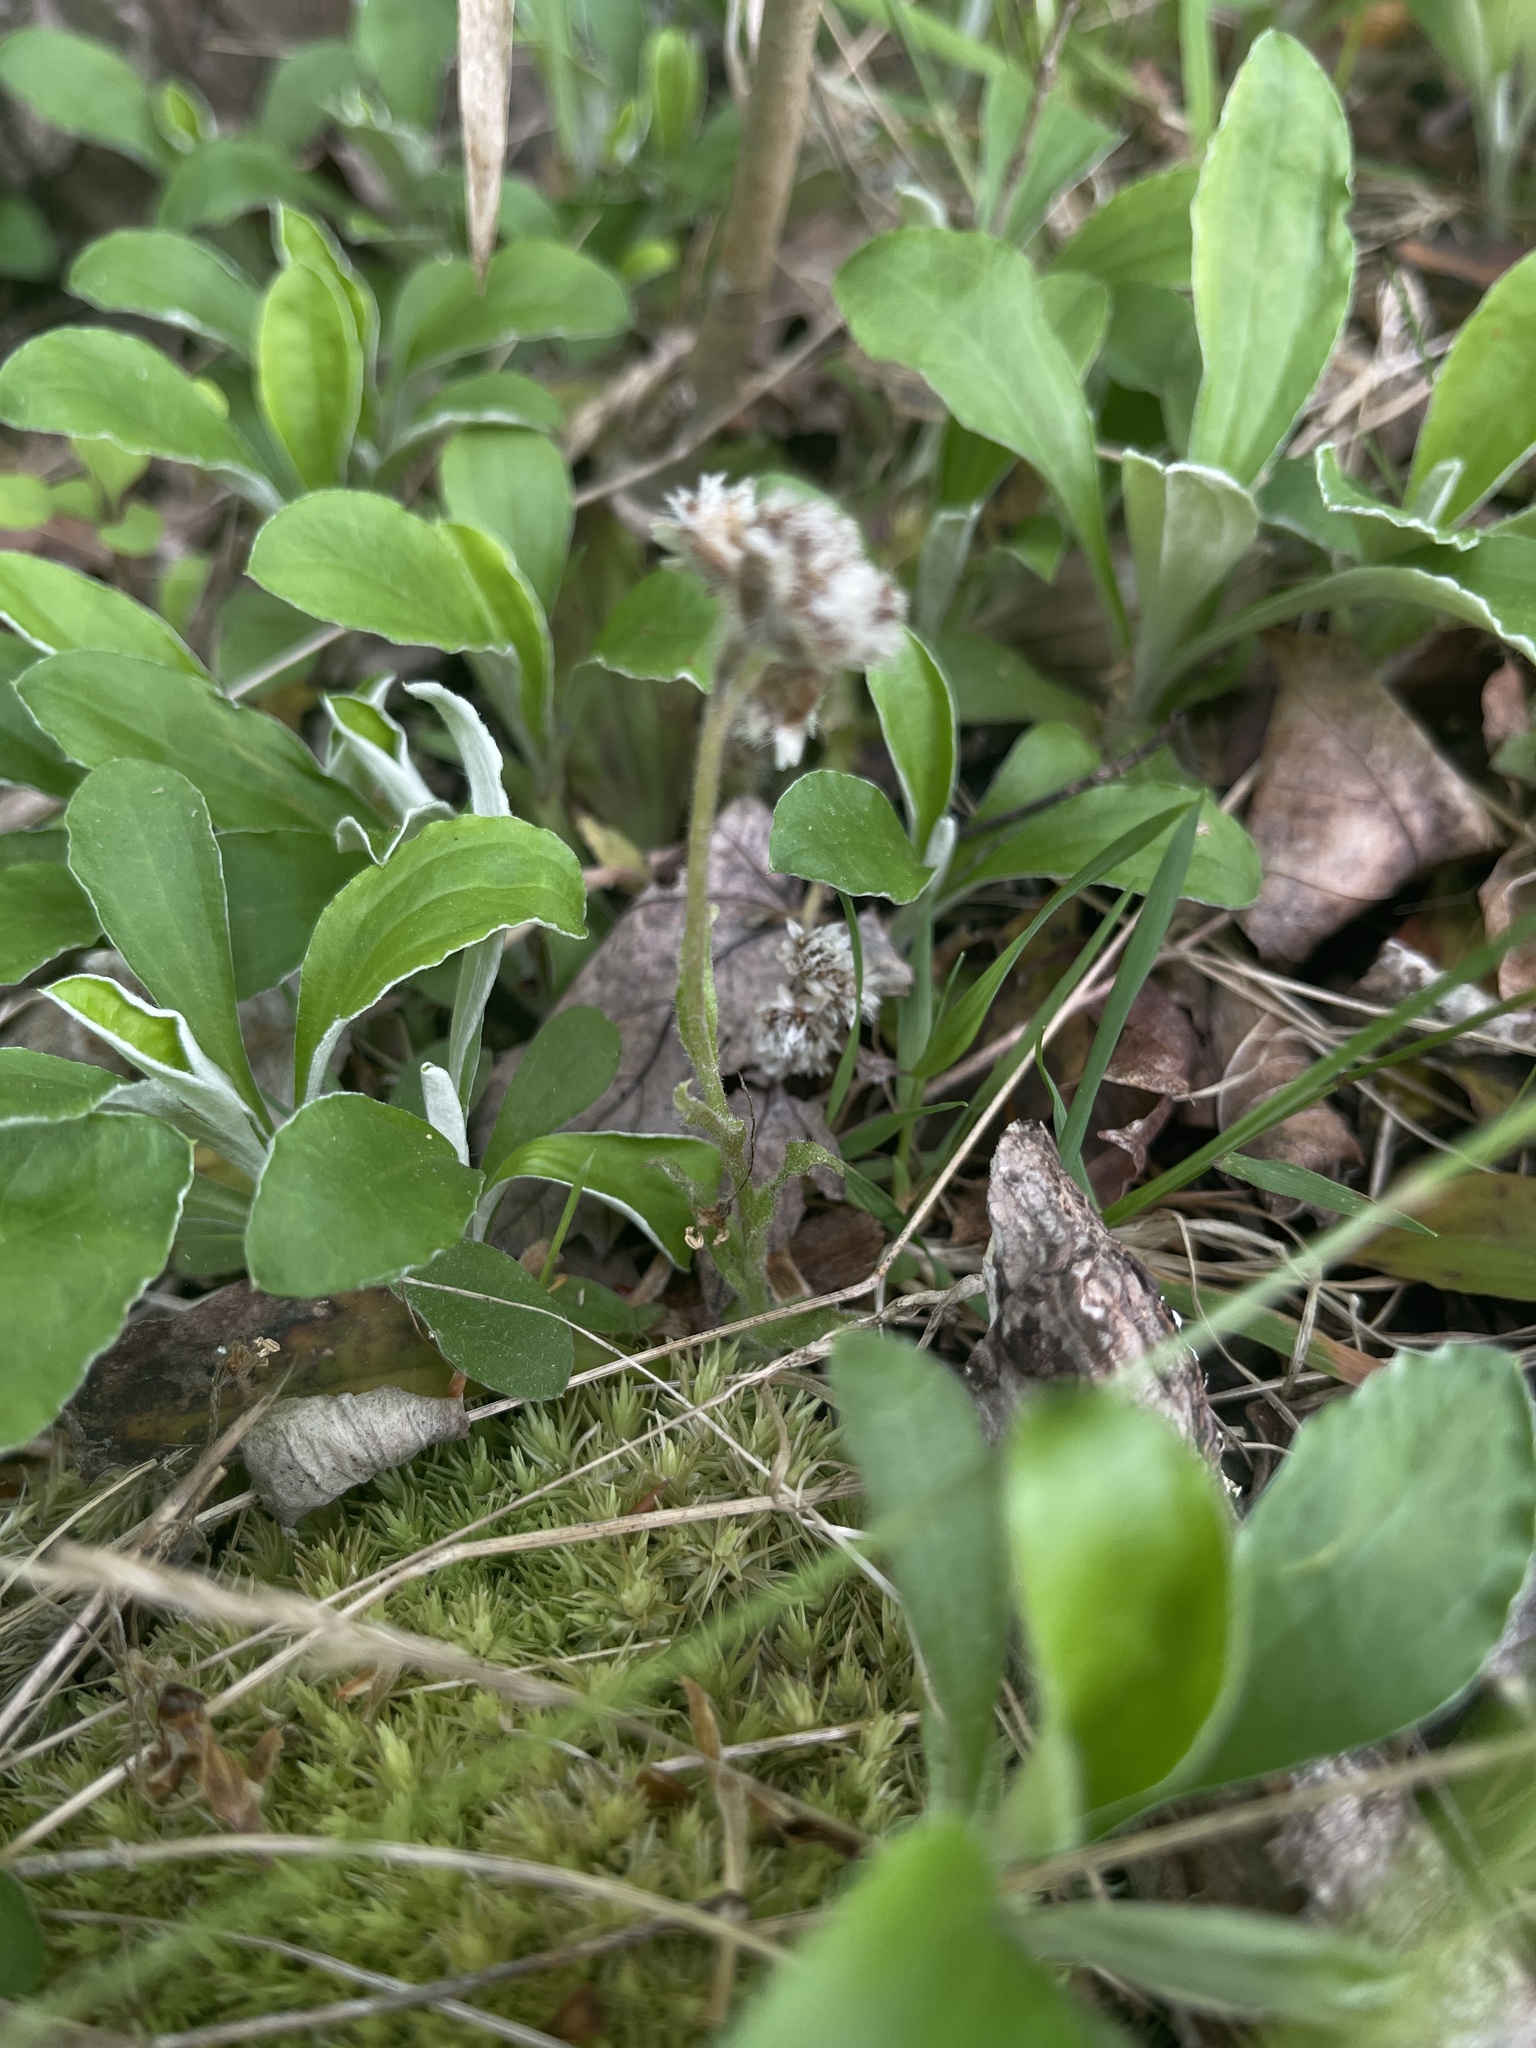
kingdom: Plantae
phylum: Tracheophyta
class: Magnoliopsida
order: Asterales
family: Asteraceae
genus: Antennaria
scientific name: Antennaria parlinii
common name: Parlin's pussytoes
